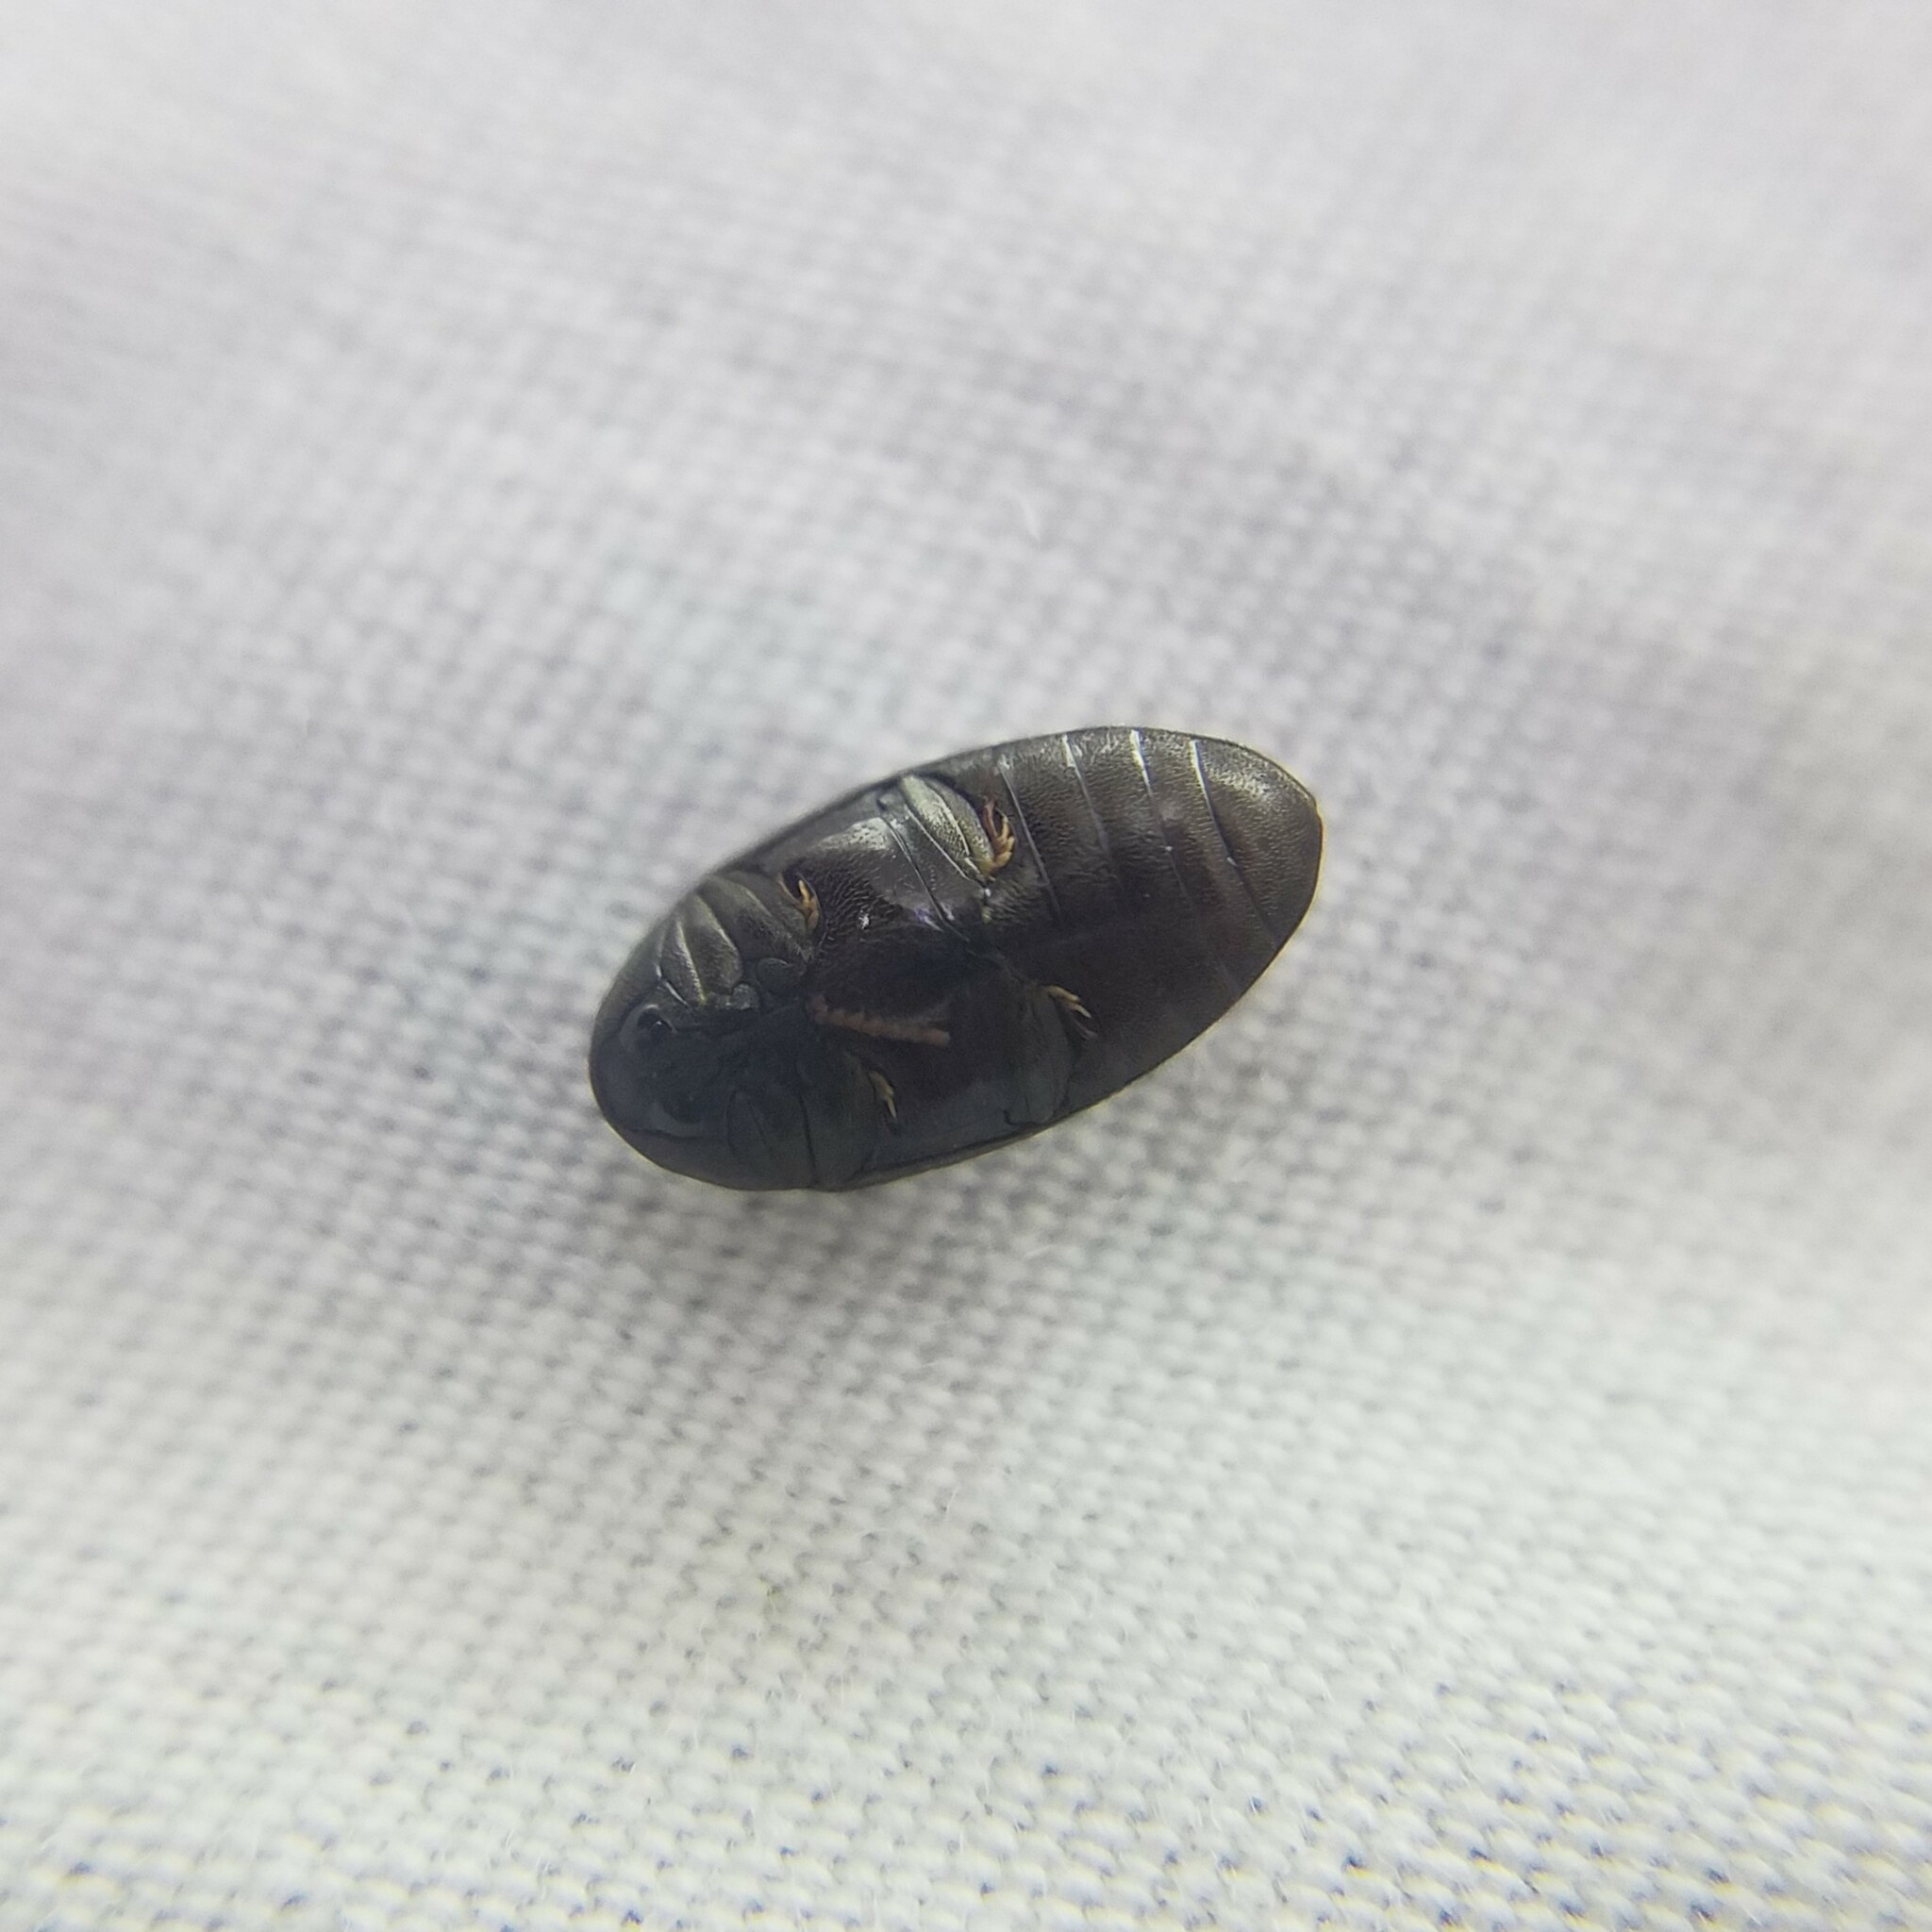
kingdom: Animalia
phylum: Arthropoda
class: Insecta
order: Coleoptera
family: Chelonariidae
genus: Chelonarium
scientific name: Chelonarium lecontei
